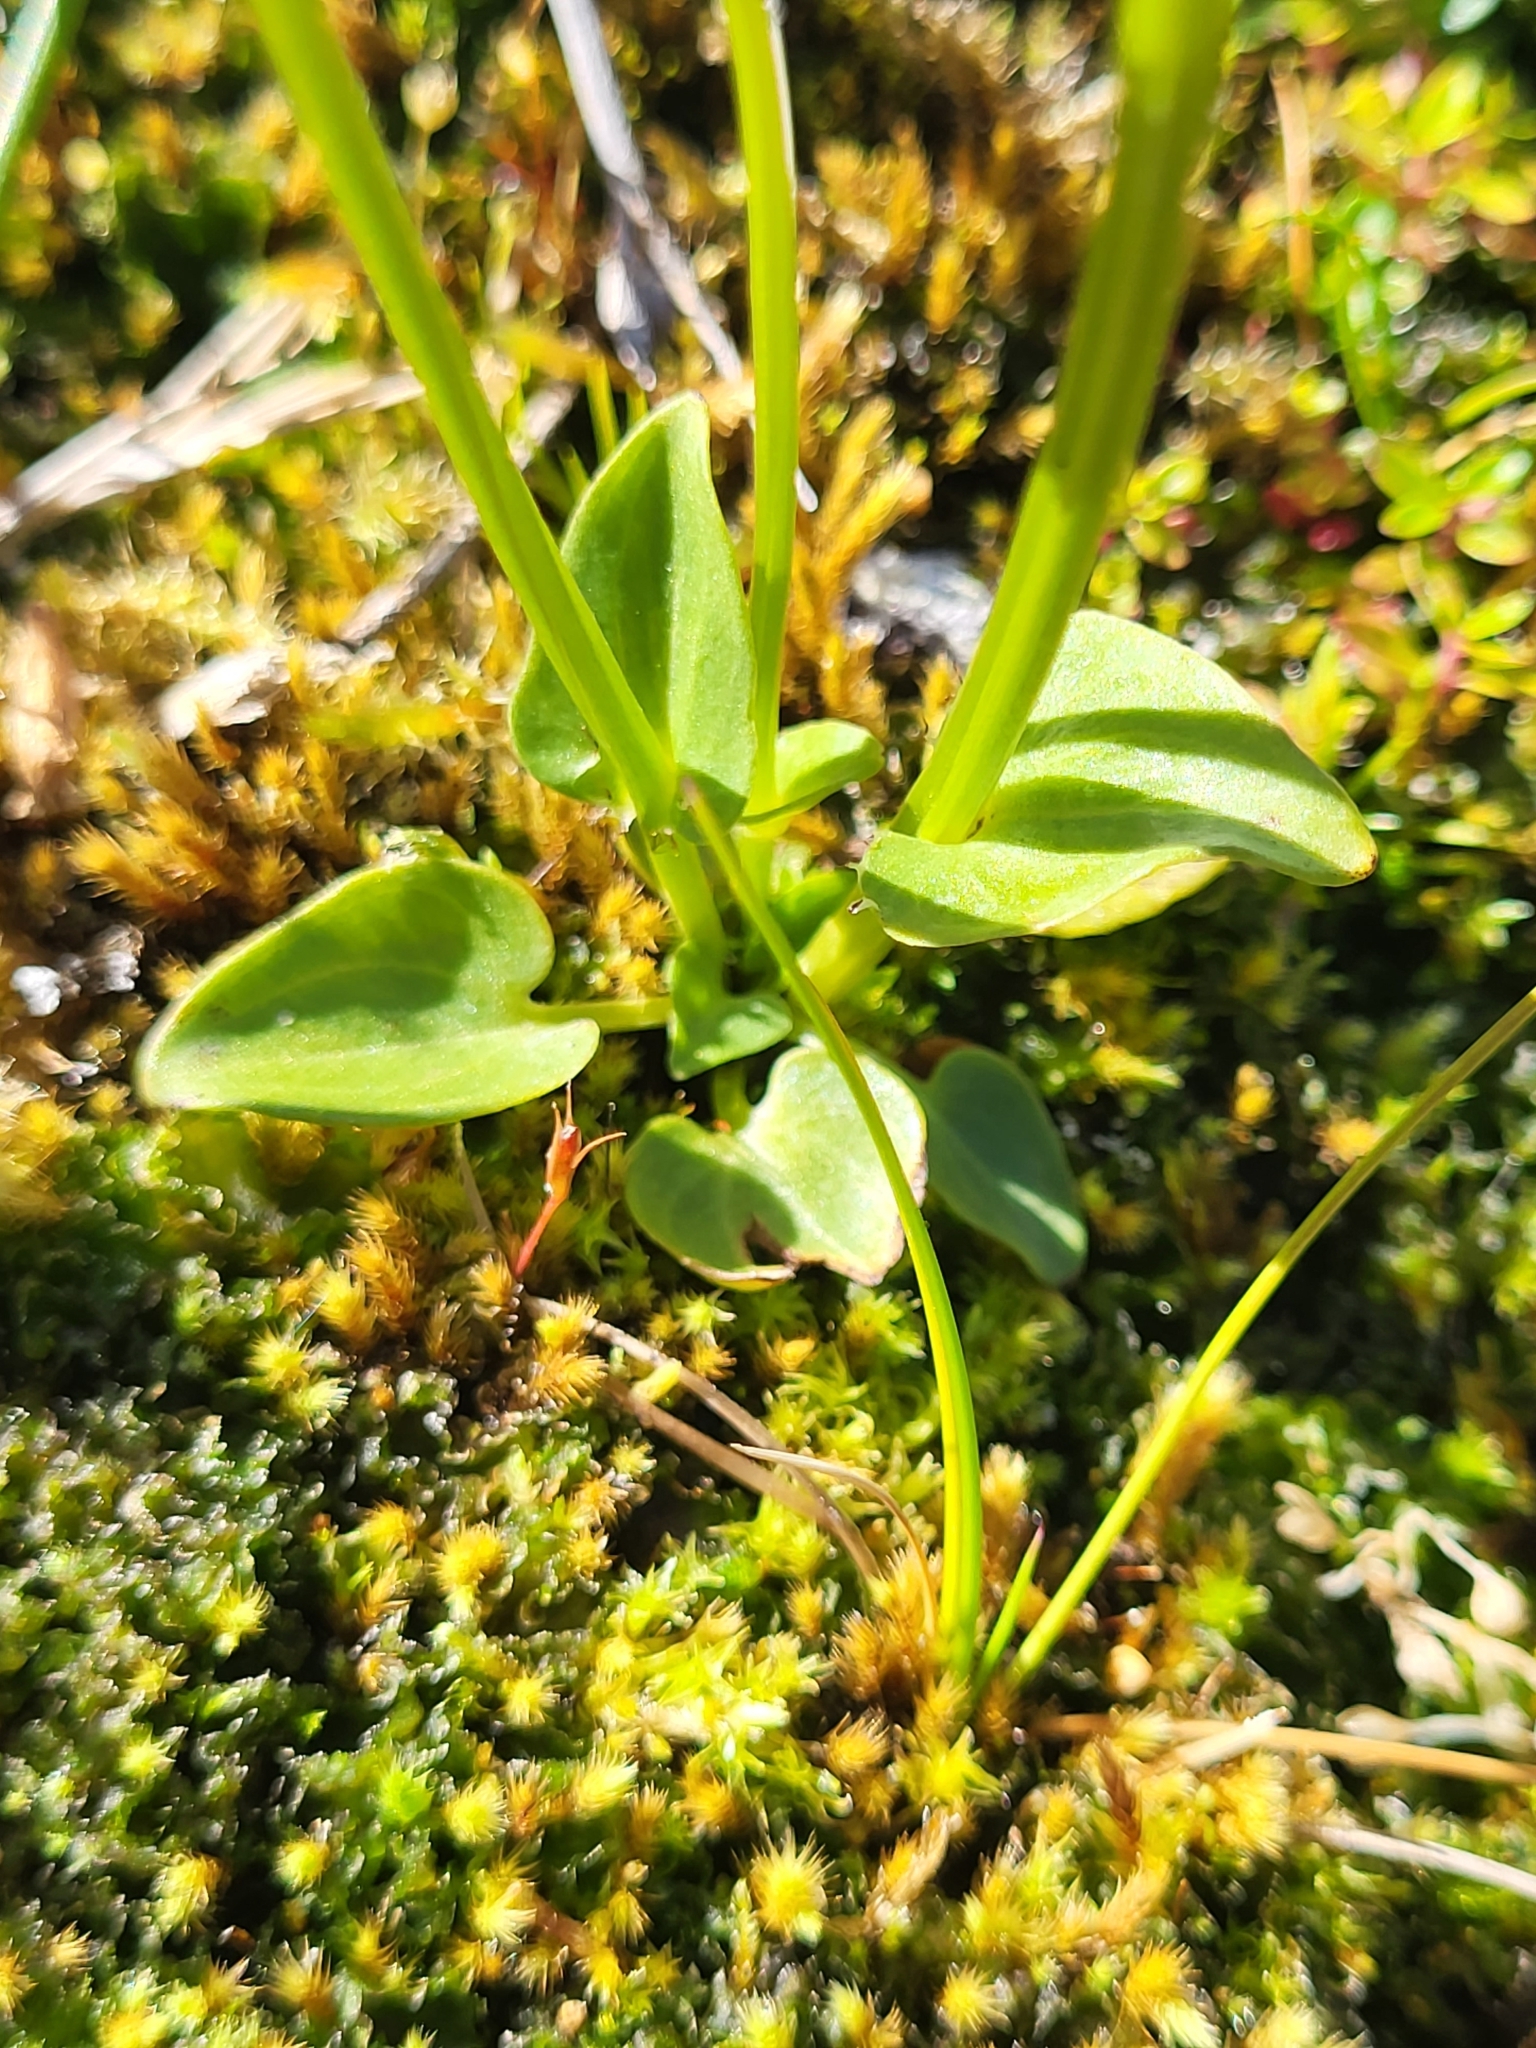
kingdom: Plantae
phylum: Tracheophyta
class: Magnoliopsida
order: Celastrales
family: Parnassiaceae
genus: Parnassia
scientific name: Parnassia palustris
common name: Grass-of-parnassus
